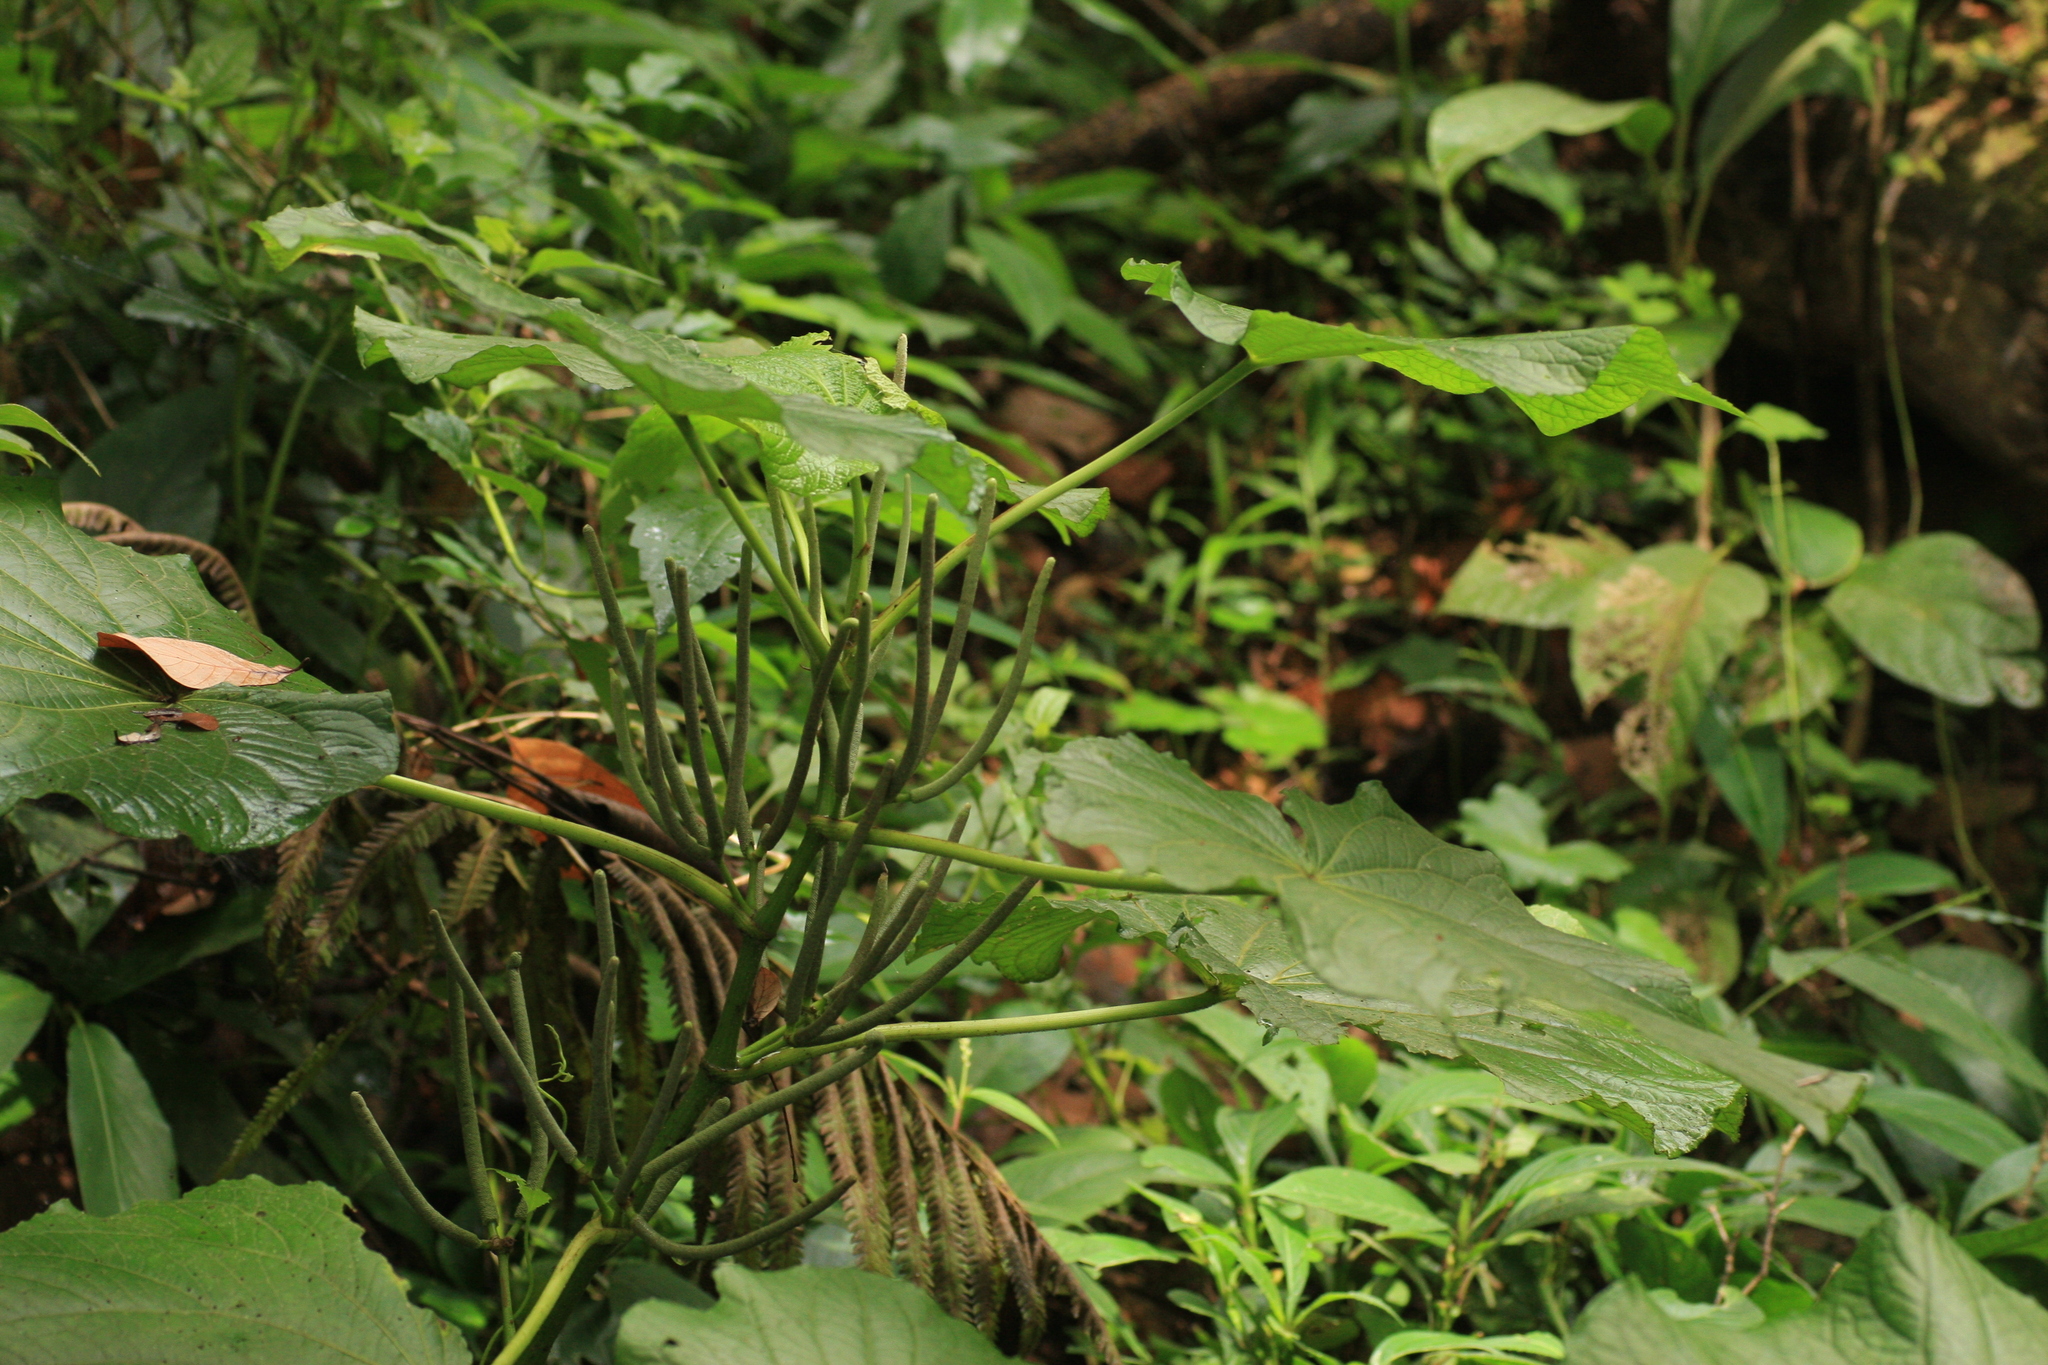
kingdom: Plantae
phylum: Tracheophyta
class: Magnoliopsida
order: Piperales
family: Piperaceae
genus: Piper
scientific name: Piper umbellatum
